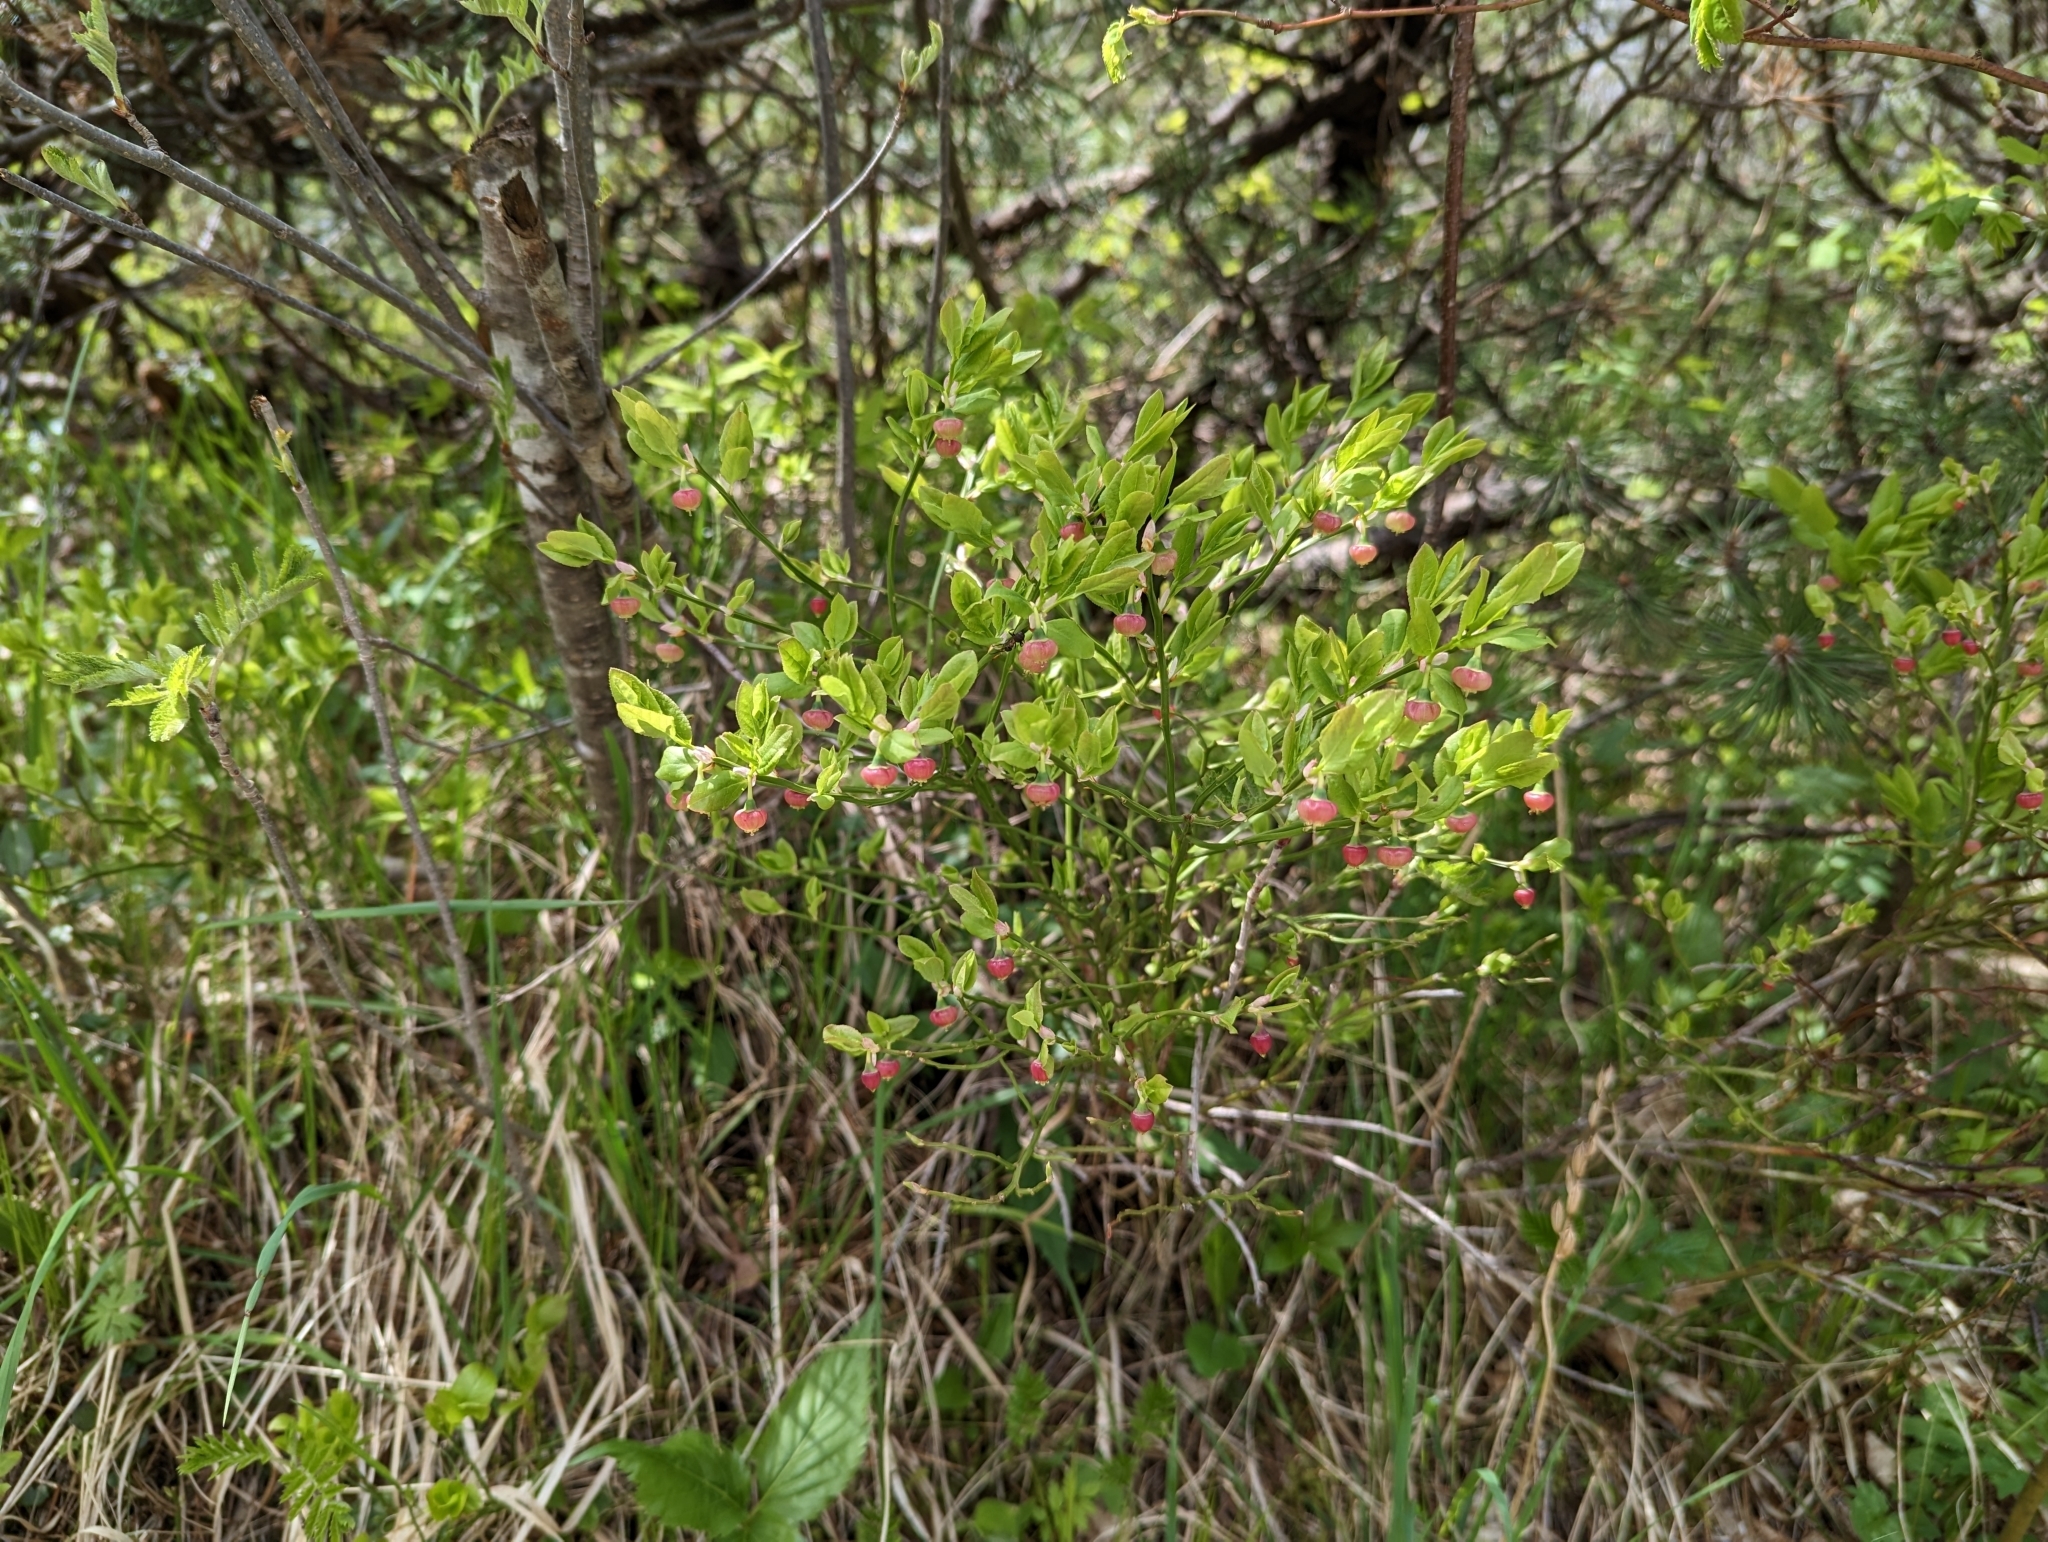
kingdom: Plantae
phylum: Tracheophyta
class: Magnoliopsida
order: Ericales
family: Ericaceae
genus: Vaccinium
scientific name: Vaccinium myrtillus
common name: Bilberry
